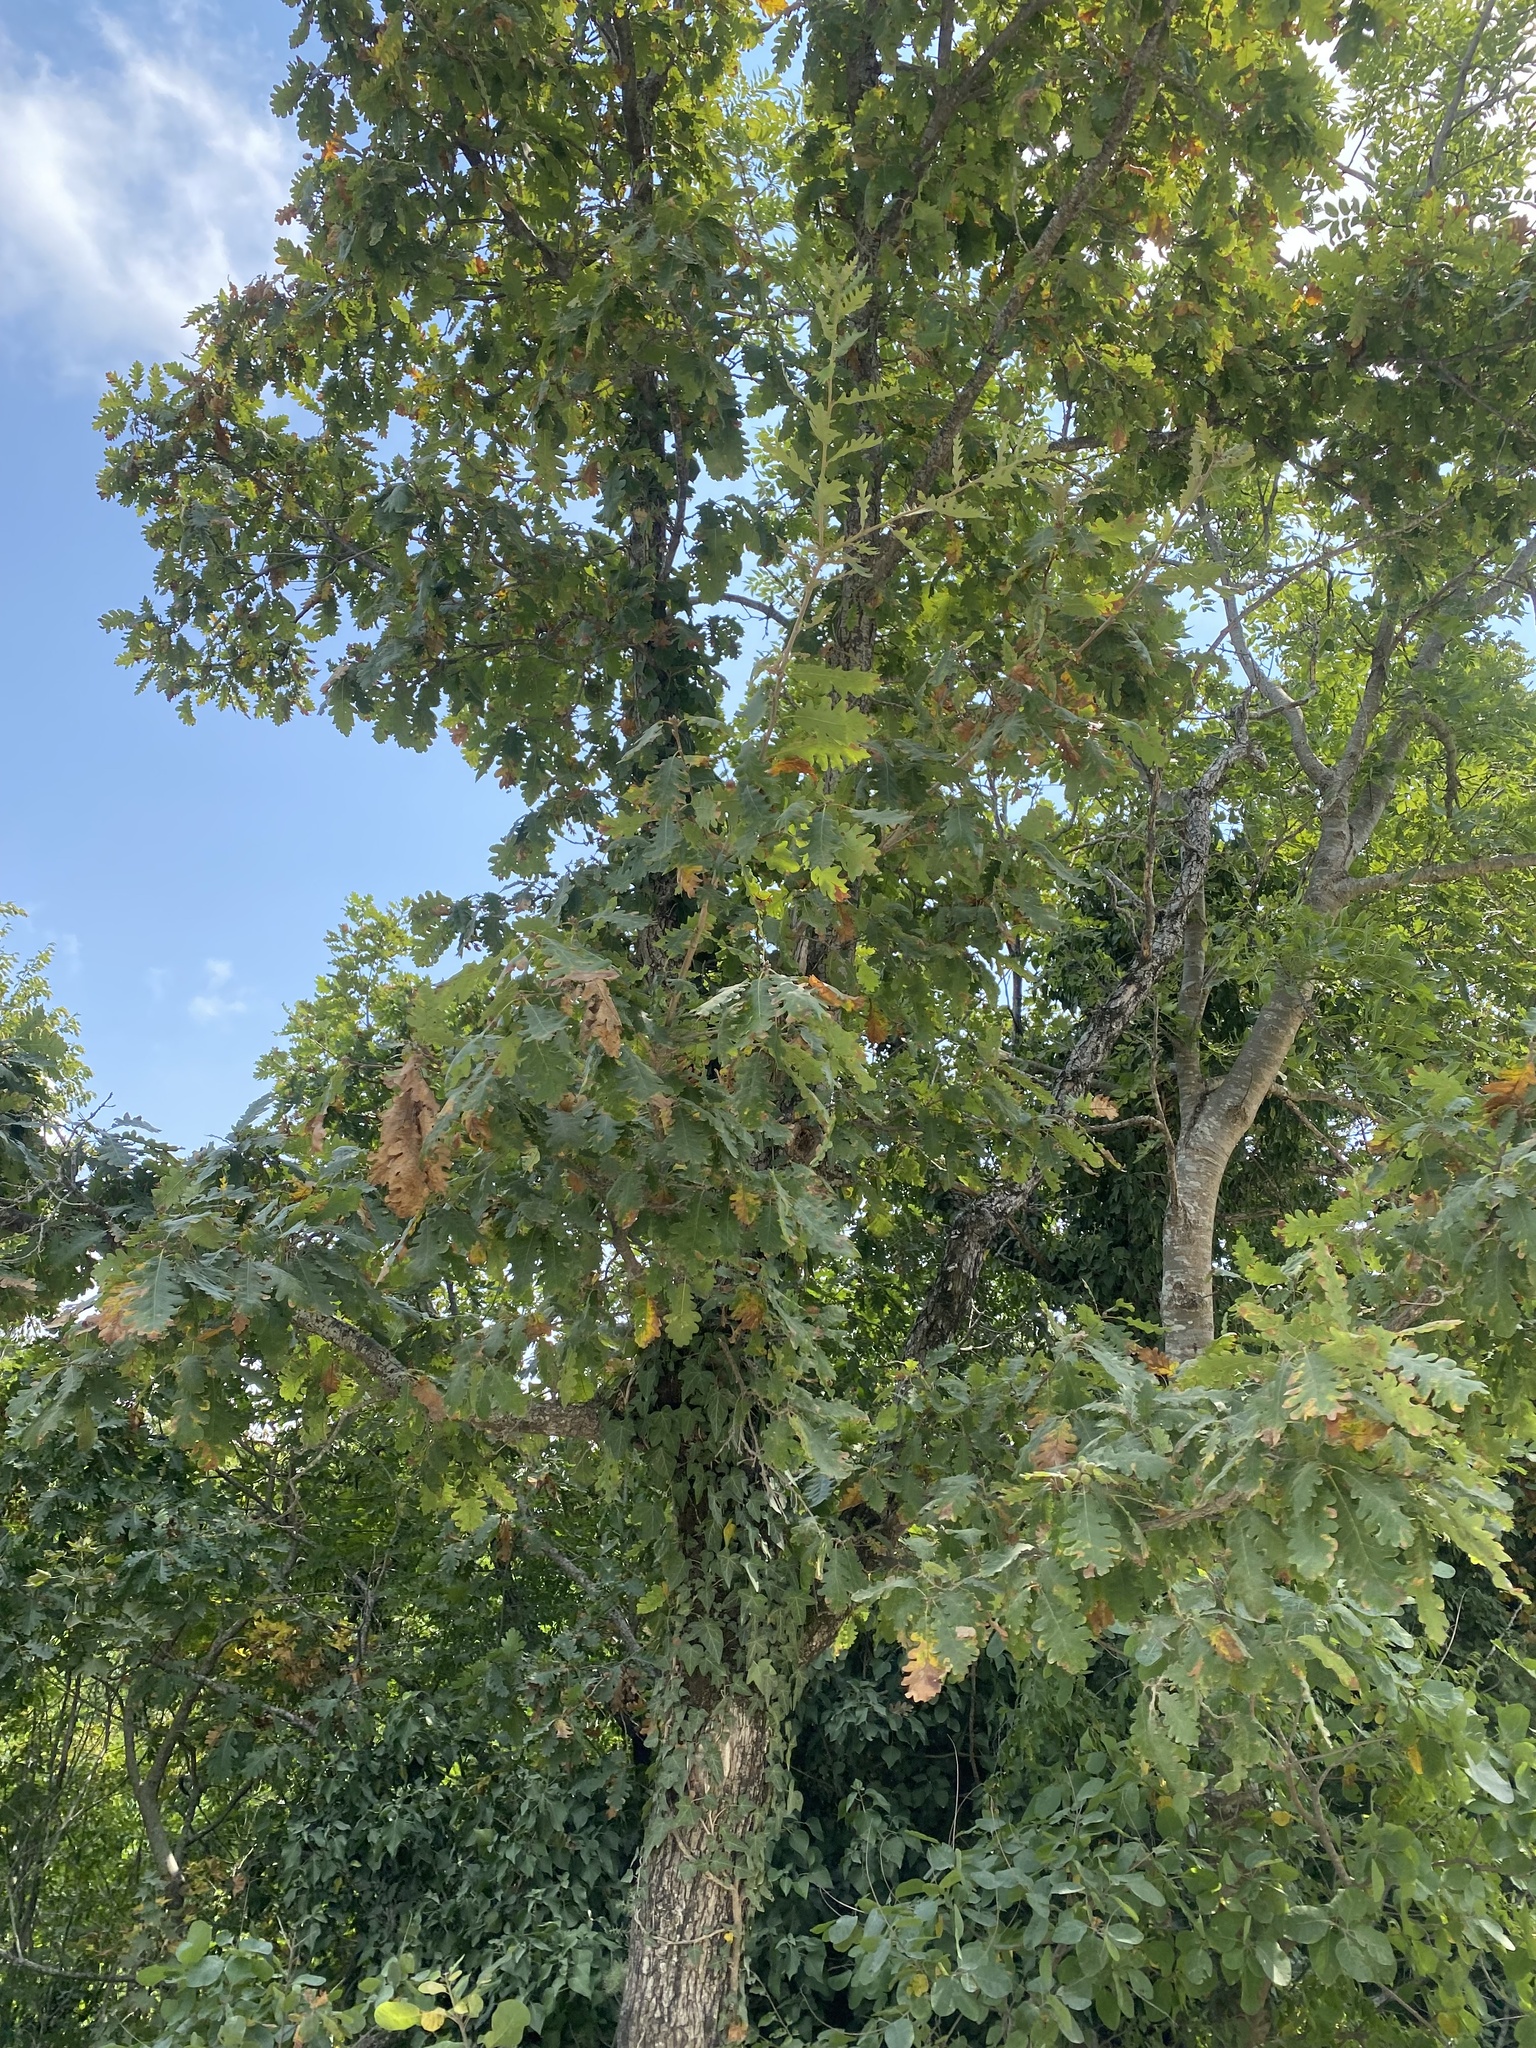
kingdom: Plantae
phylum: Tracheophyta
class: Magnoliopsida
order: Fagales
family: Fagaceae
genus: Quercus
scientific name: Quercus pubescens
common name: Downy oak
